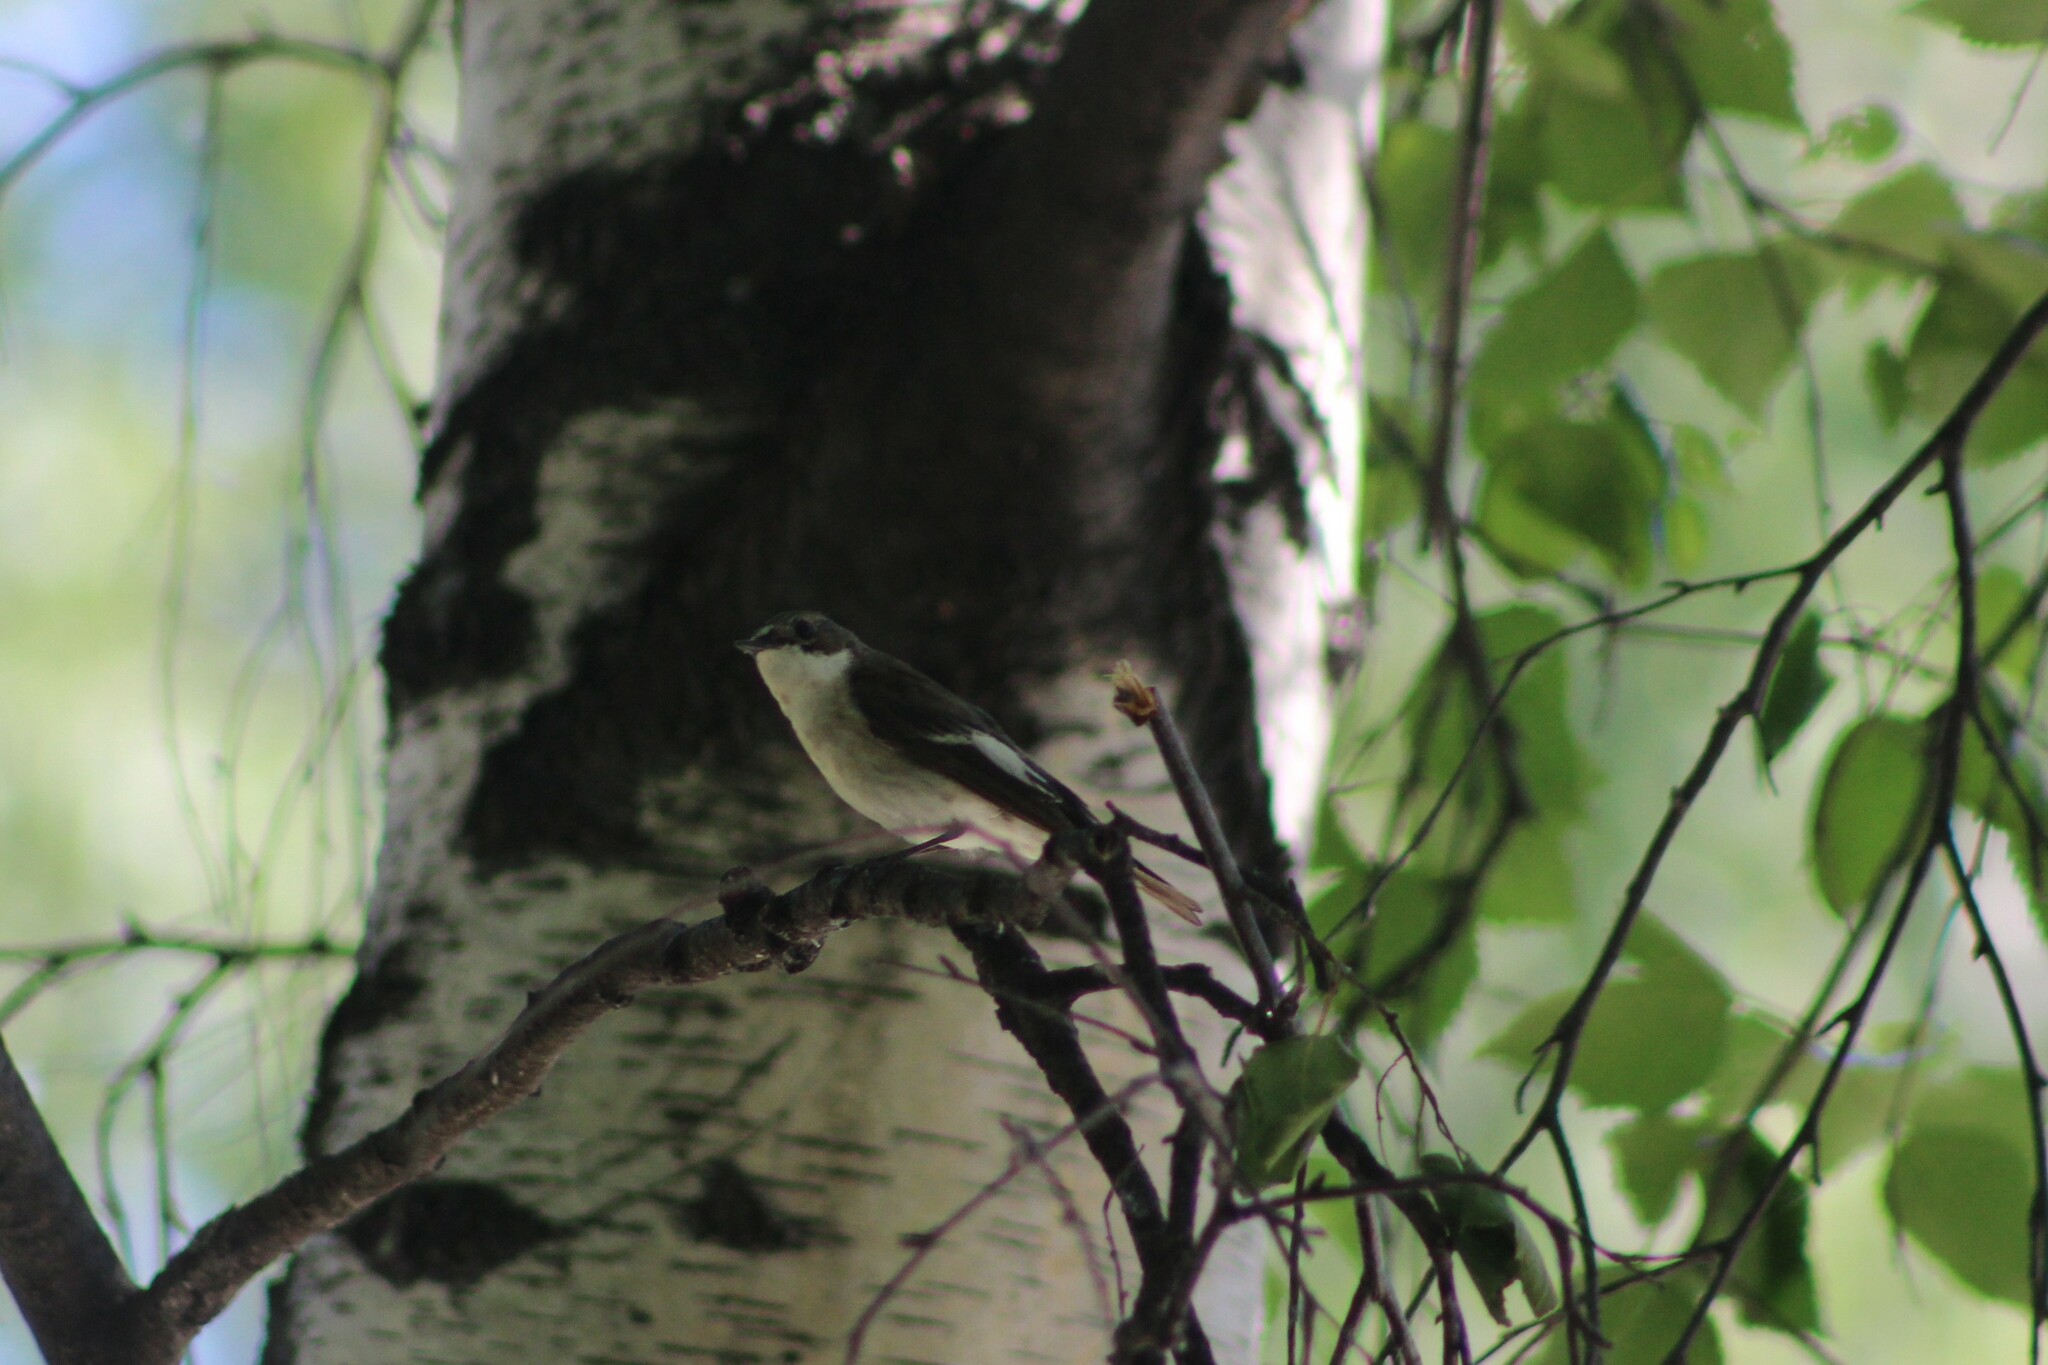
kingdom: Animalia
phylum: Chordata
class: Aves
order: Passeriformes
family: Muscicapidae
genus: Ficedula
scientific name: Ficedula hypoleuca
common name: European pied flycatcher
